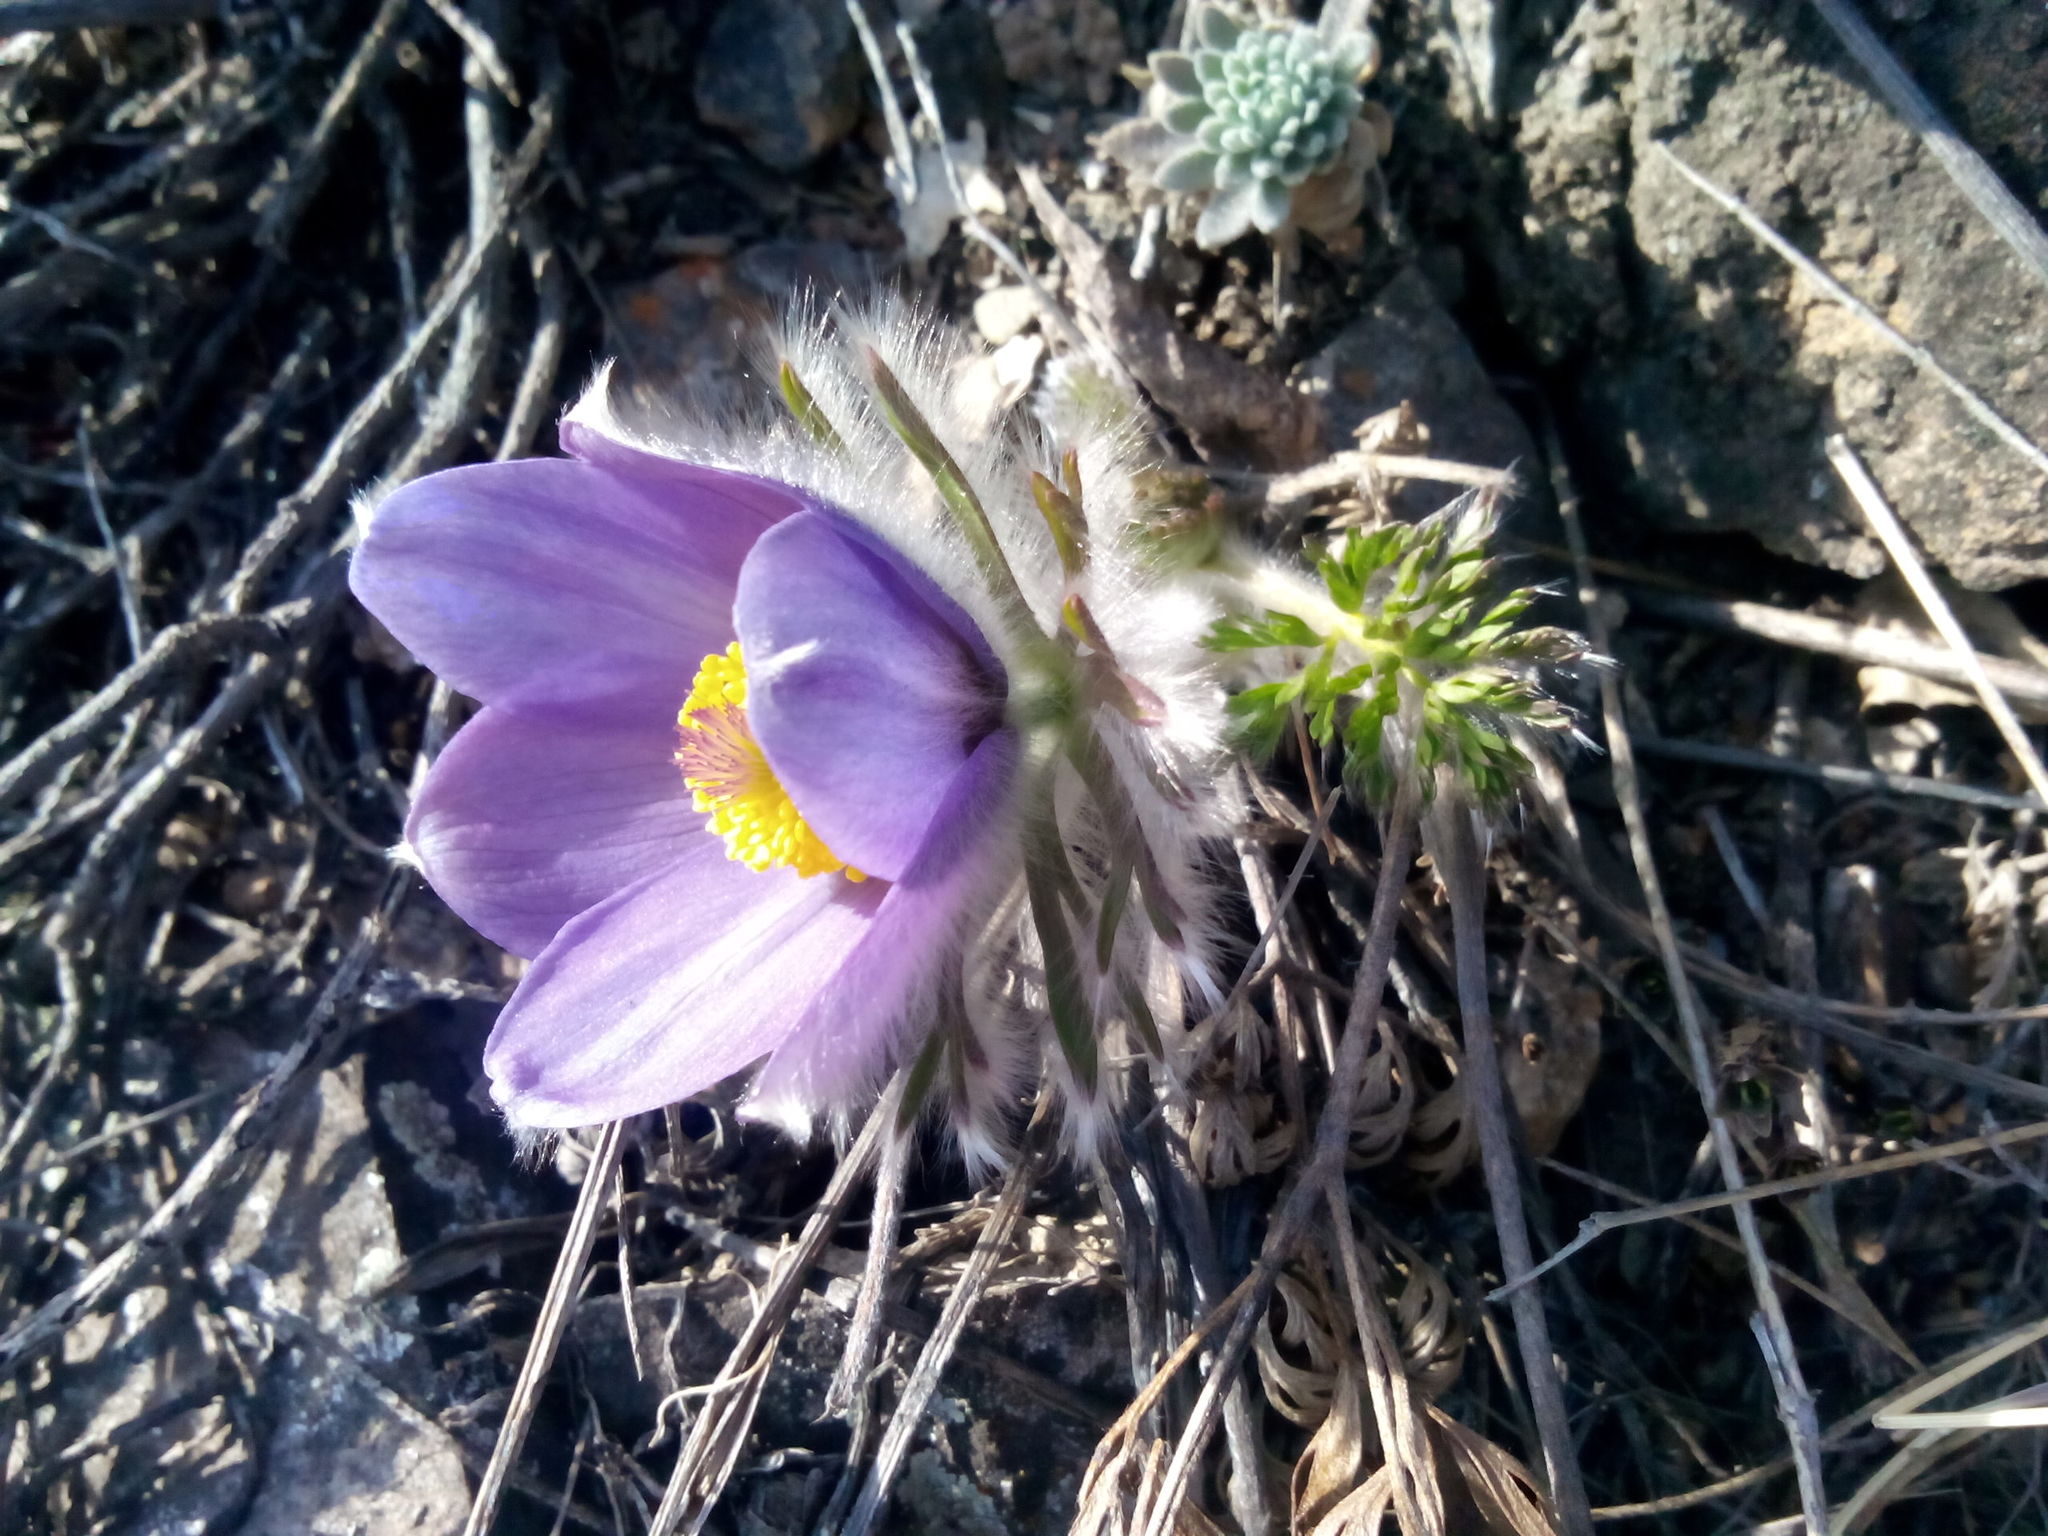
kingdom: Plantae
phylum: Tracheophyta
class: Magnoliopsida
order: Ranunculales
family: Ranunculaceae
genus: Pulsatilla
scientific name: Pulsatilla turczaninovii
